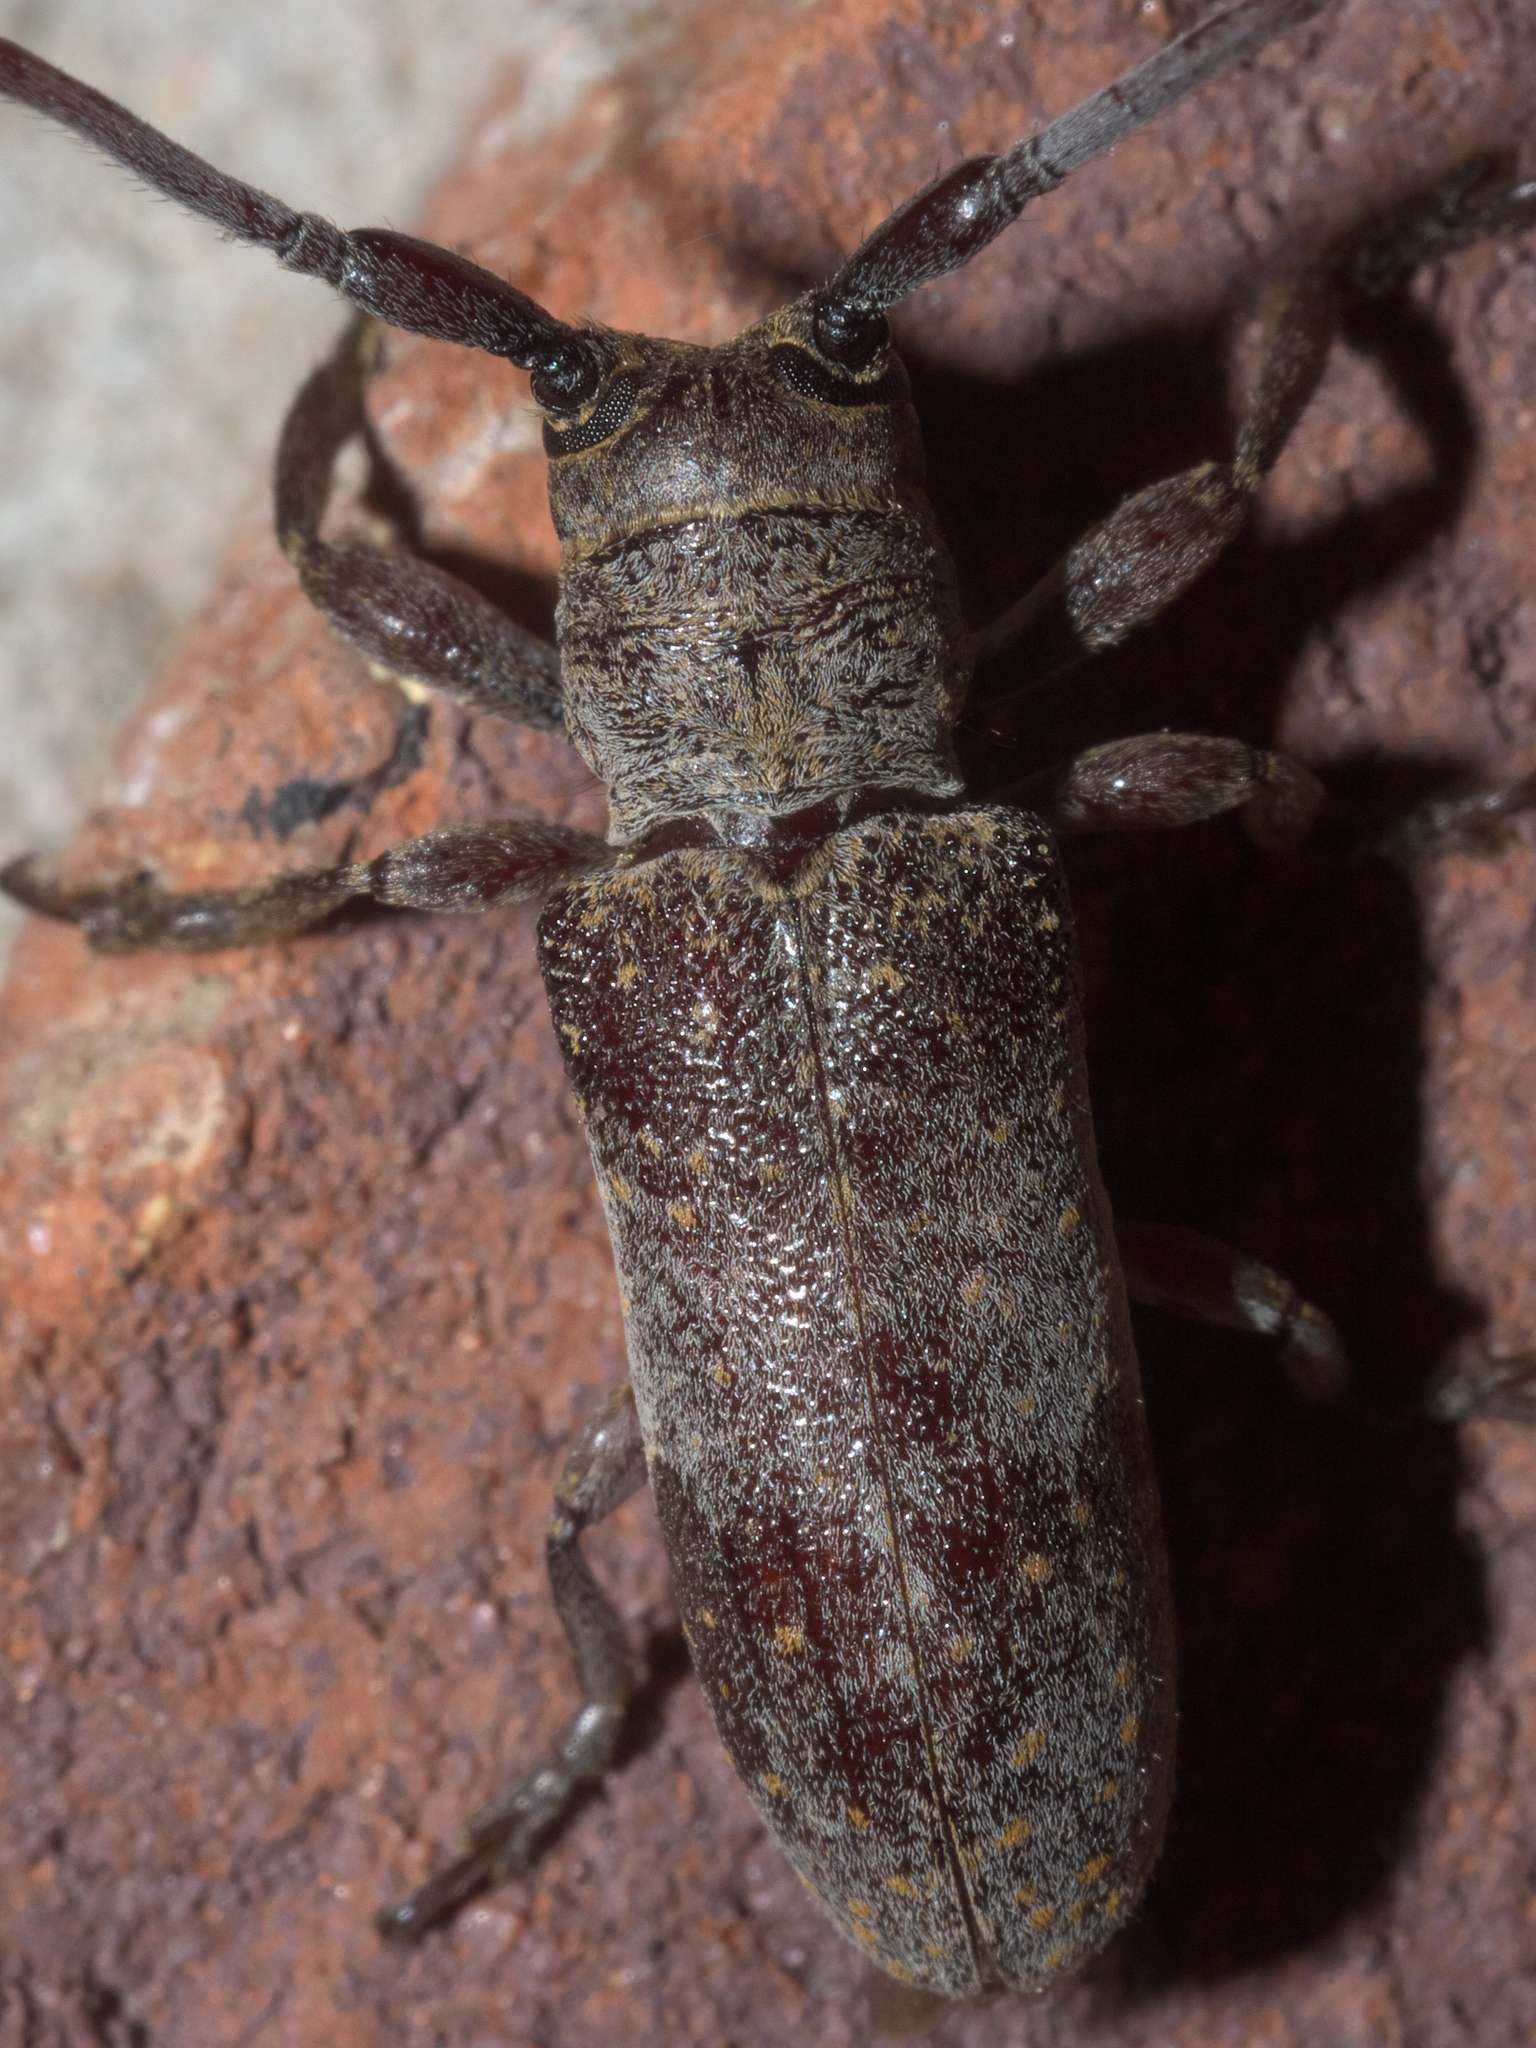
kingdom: Animalia
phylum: Arthropoda
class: Insecta
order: Coleoptera
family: Cerambycidae
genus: Oncideres
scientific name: Oncideres cingulata
